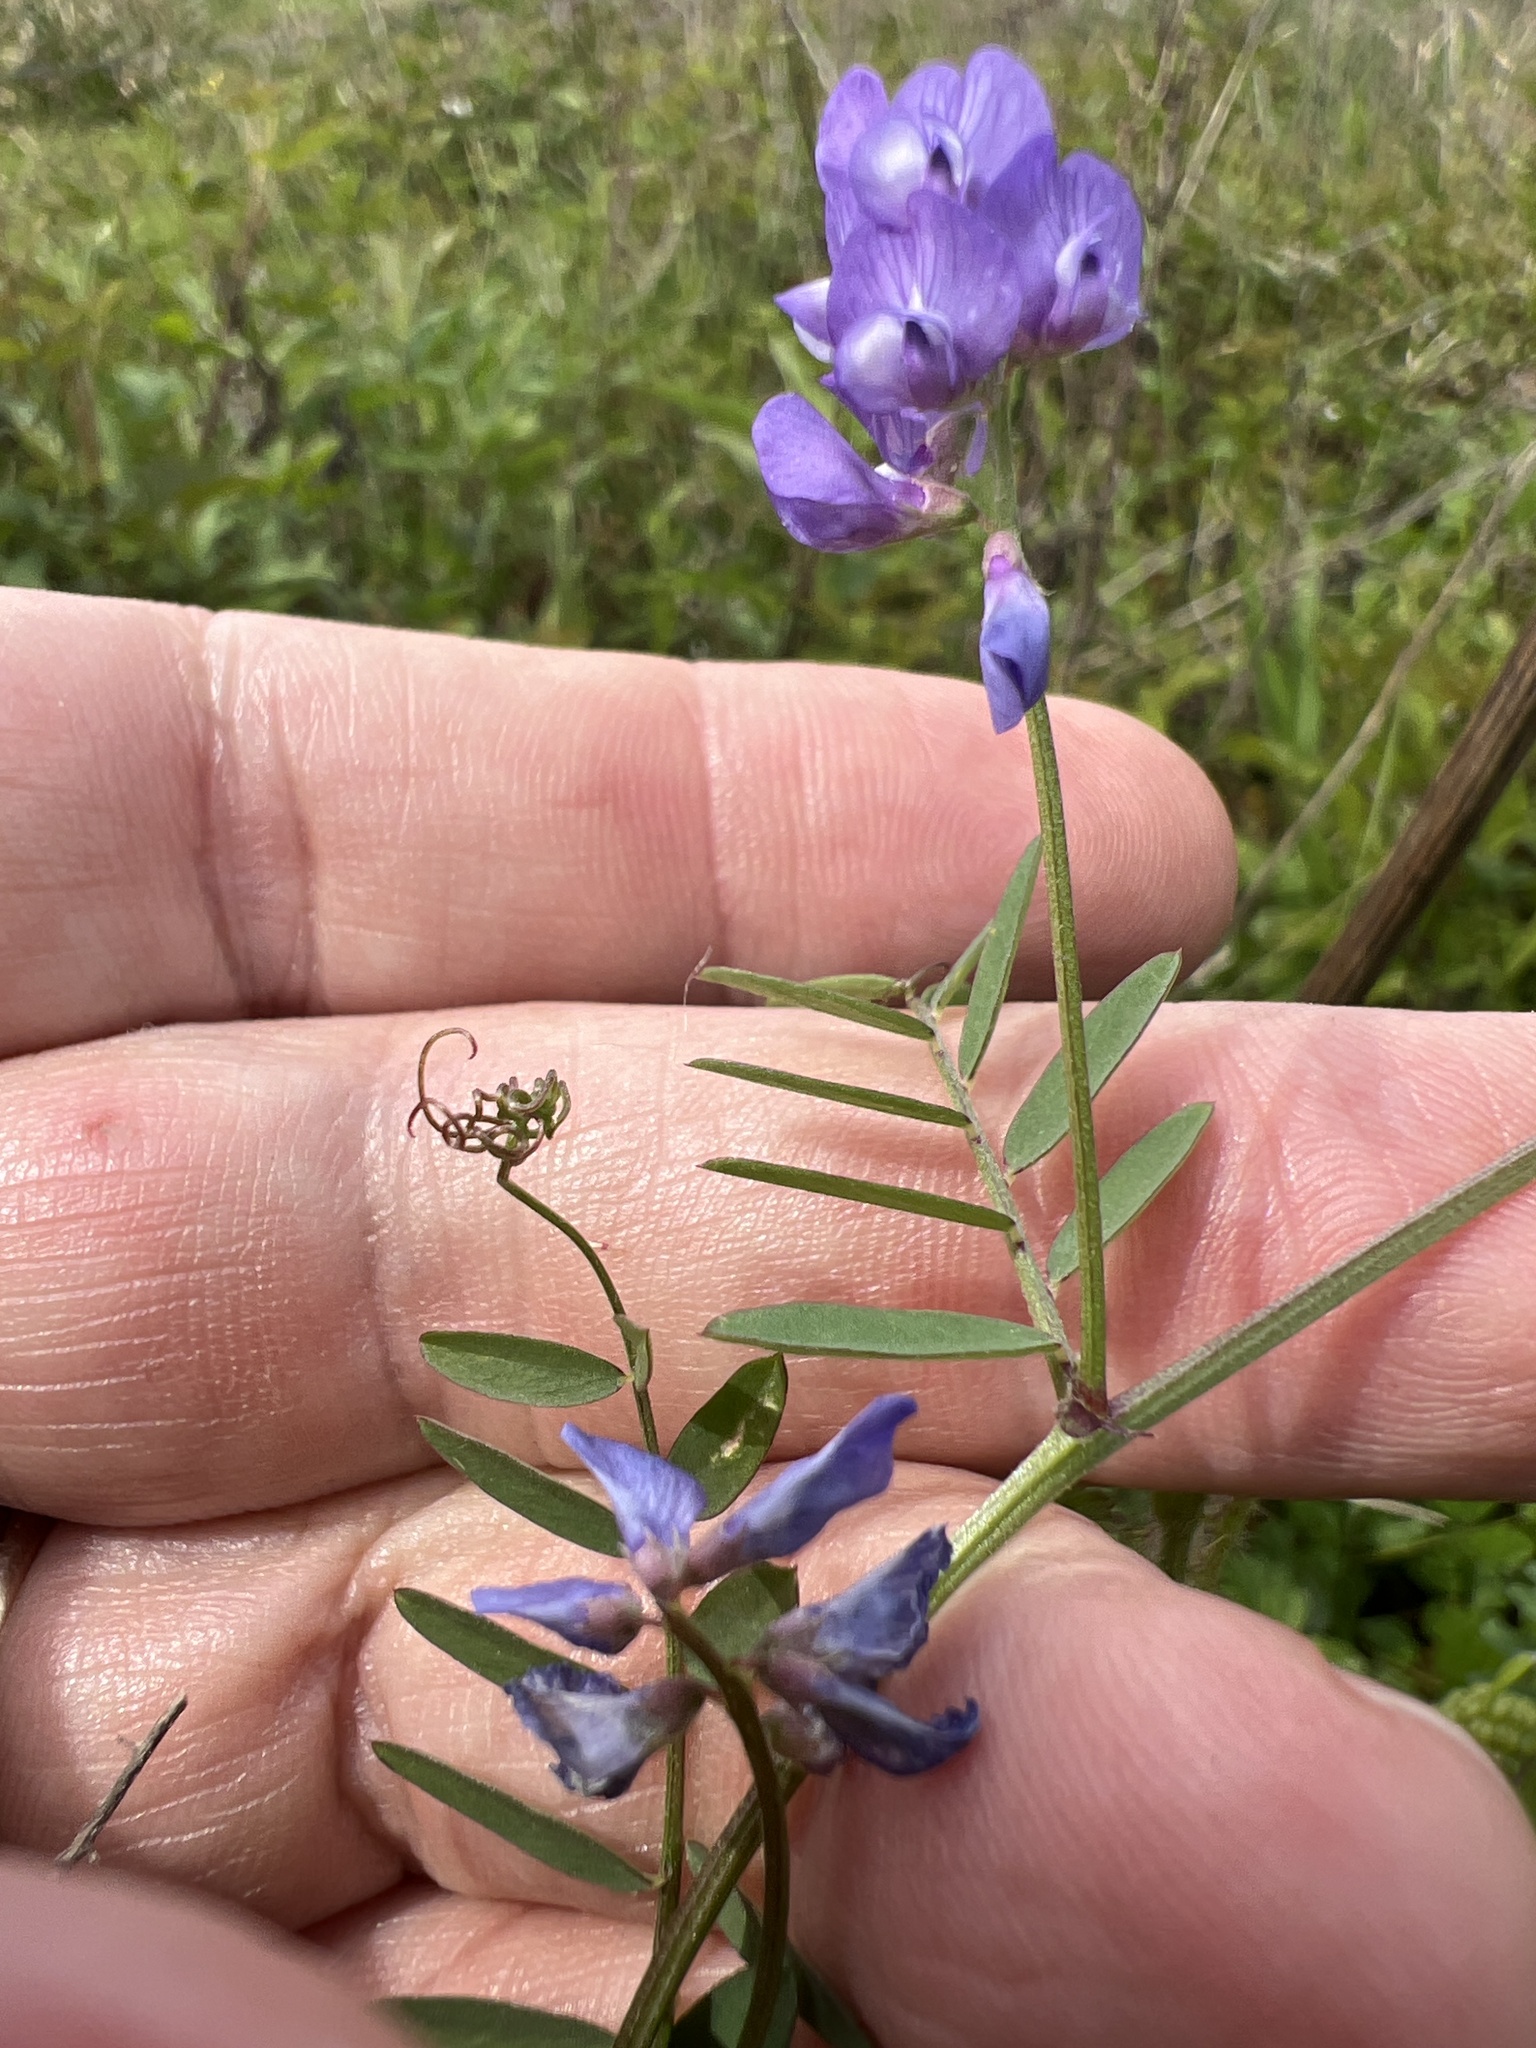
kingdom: Plantae
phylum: Tracheophyta
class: Magnoliopsida
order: Fabales
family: Fabaceae
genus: Vicia
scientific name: Vicia ludoviciana
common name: Louisiana vetch
